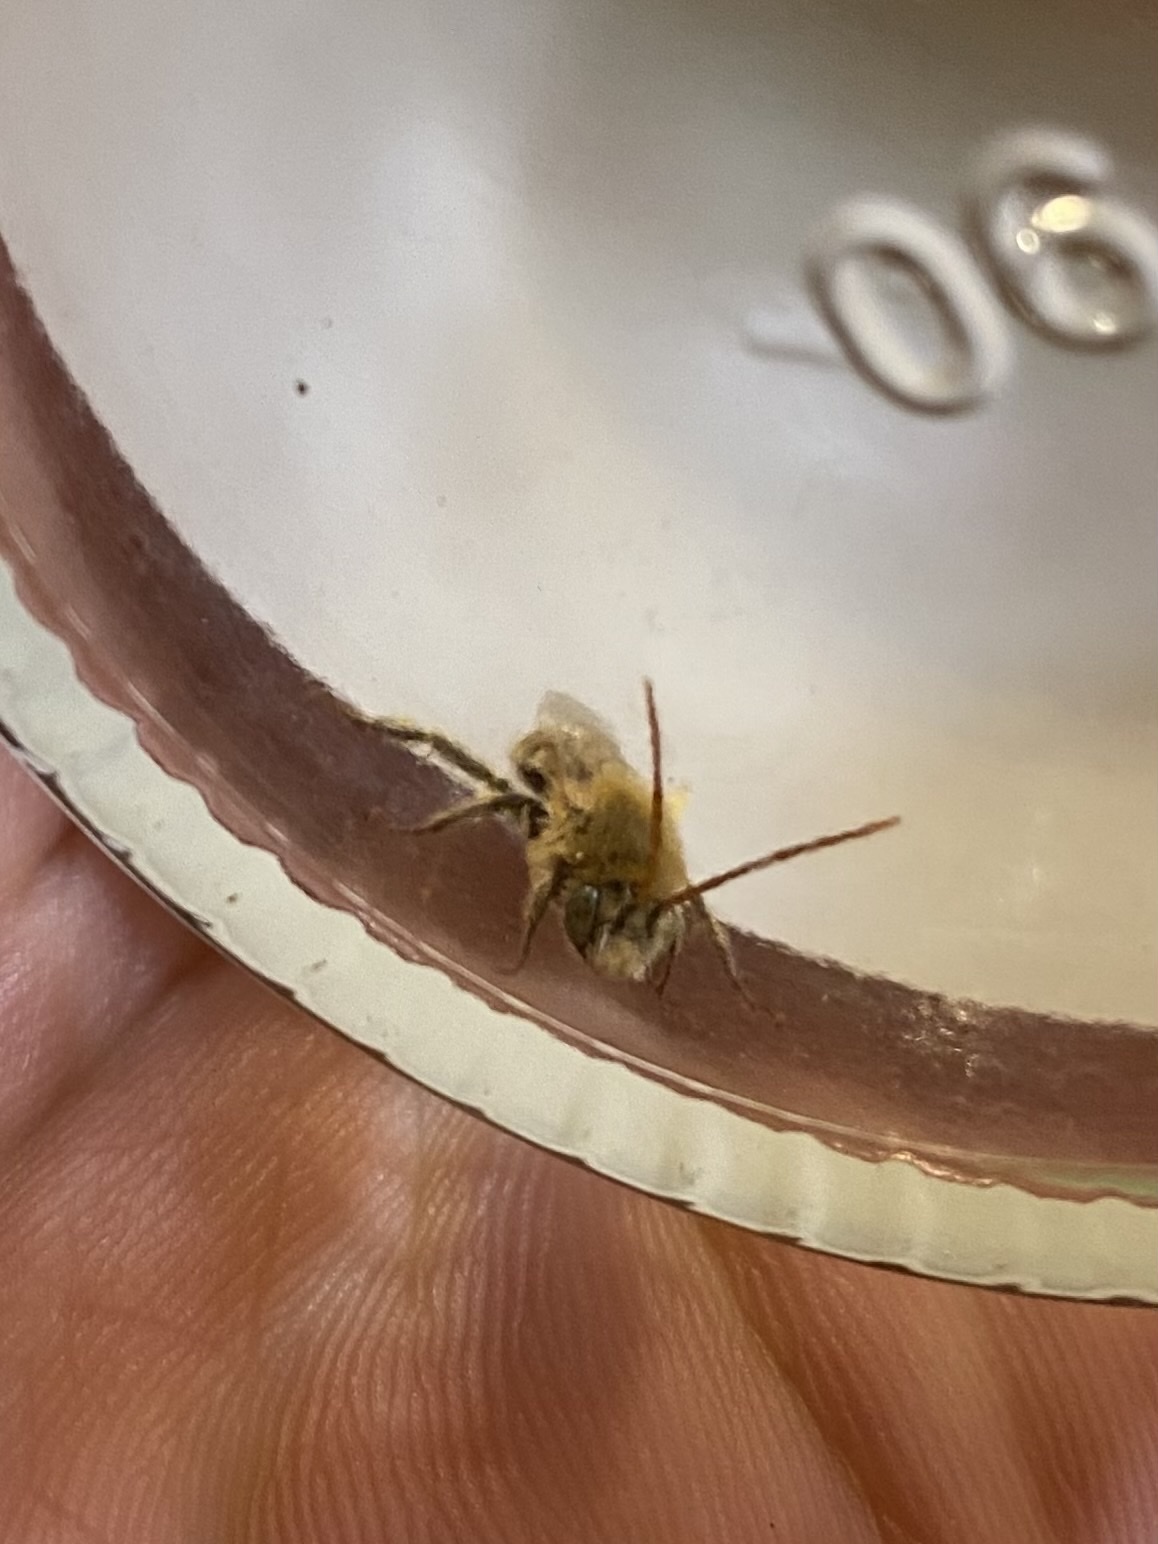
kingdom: Animalia
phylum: Arthropoda
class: Insecta
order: Hymenoptera
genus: Eumelissodes
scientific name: Eumelissodes
